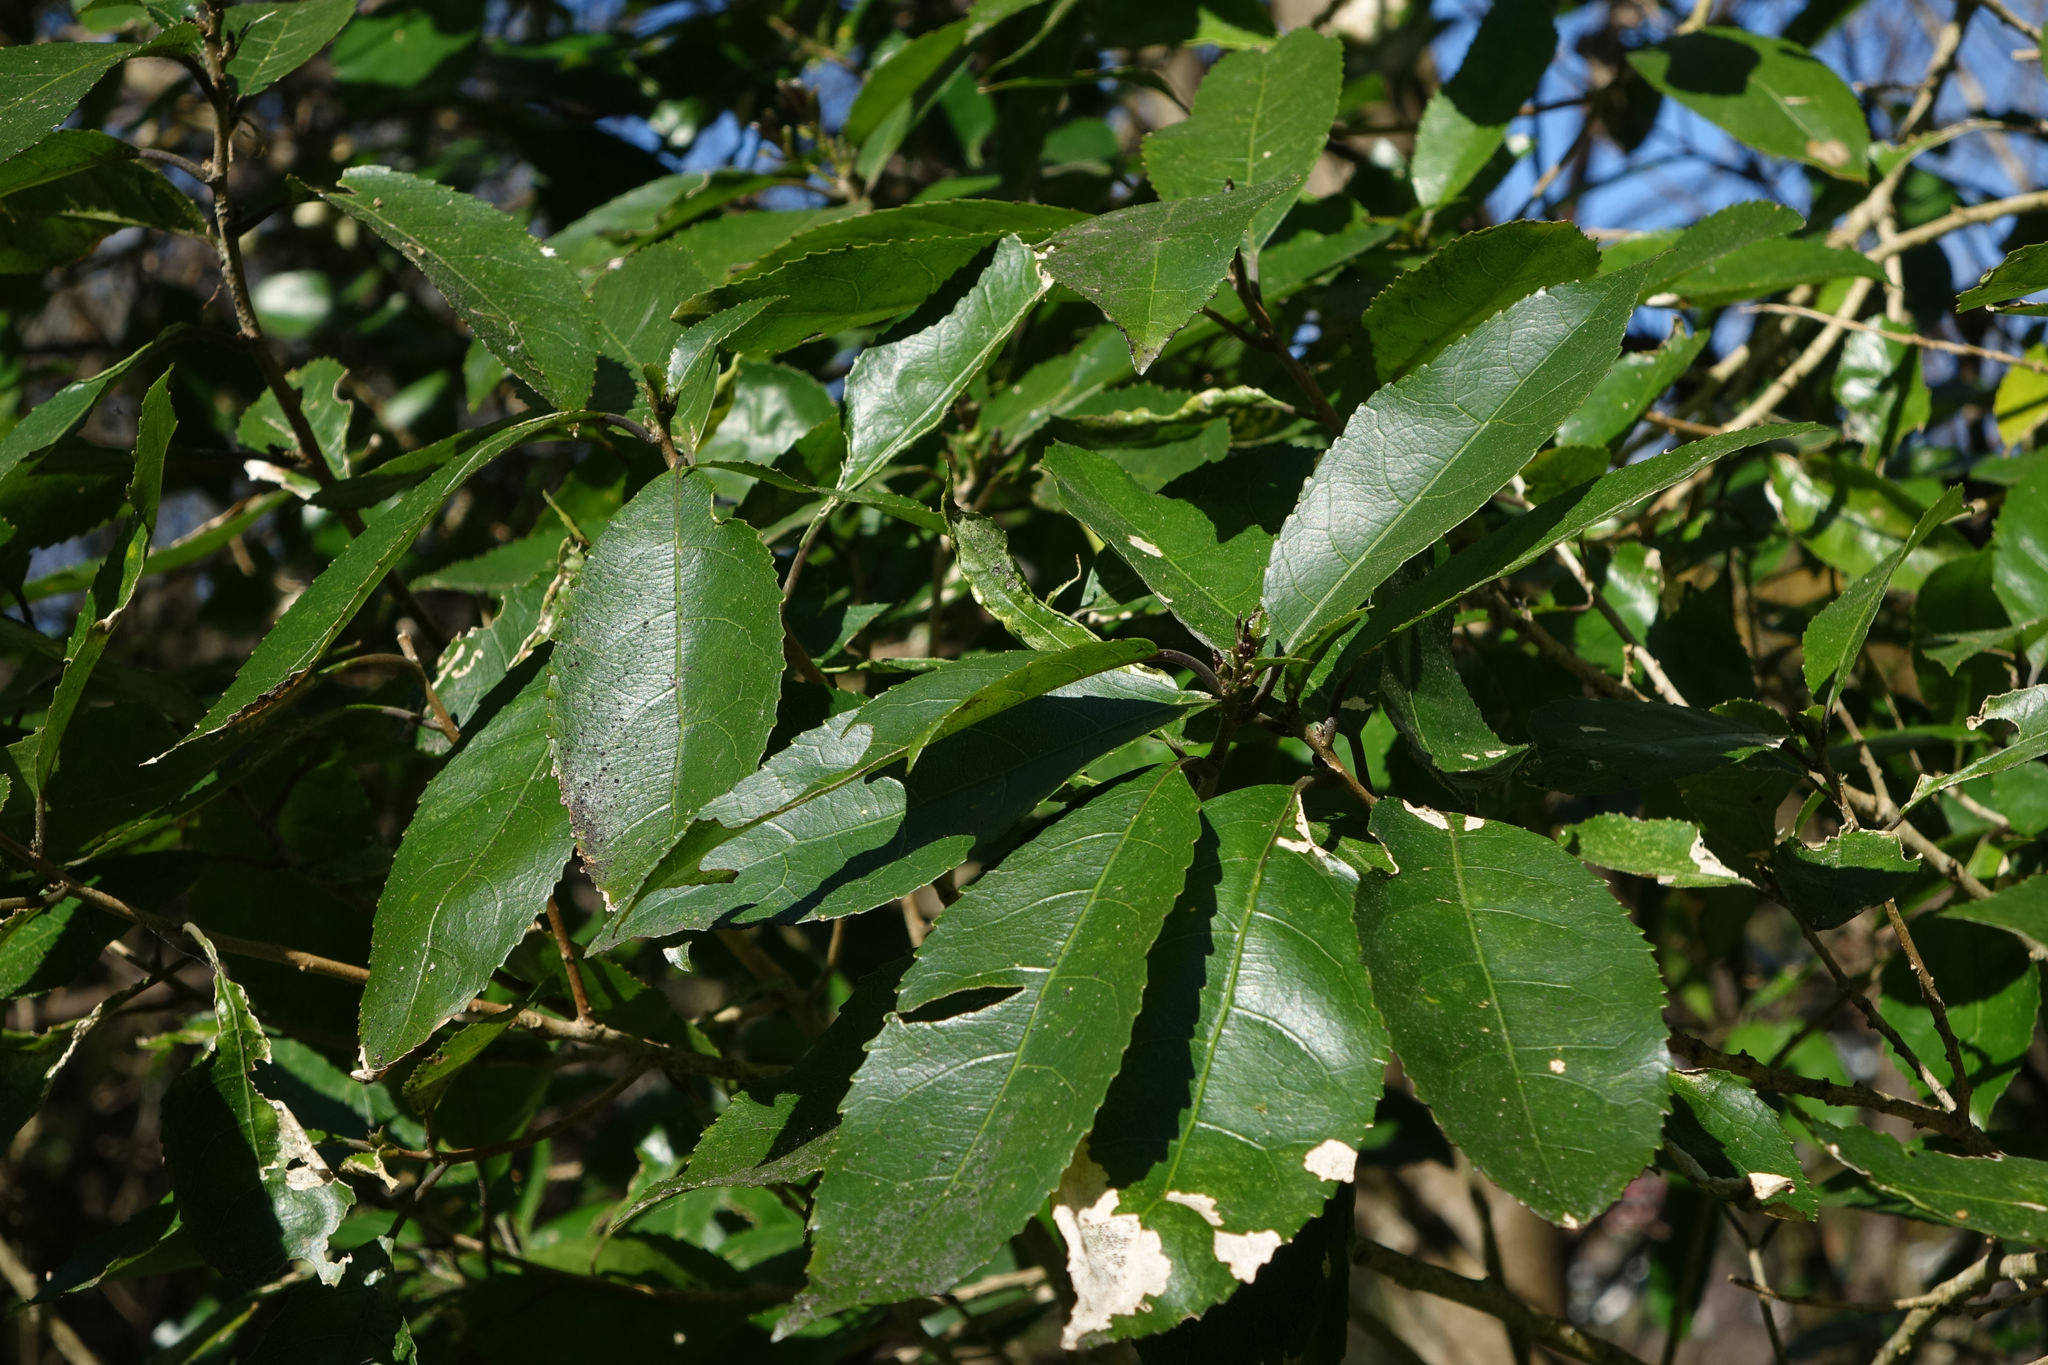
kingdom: Plantae
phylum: Tracheophyta
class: Magnoliopsida
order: Malpighiales
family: Violaceae
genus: Melicytus
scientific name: Melicytus ramiflorus
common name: Mahoe
